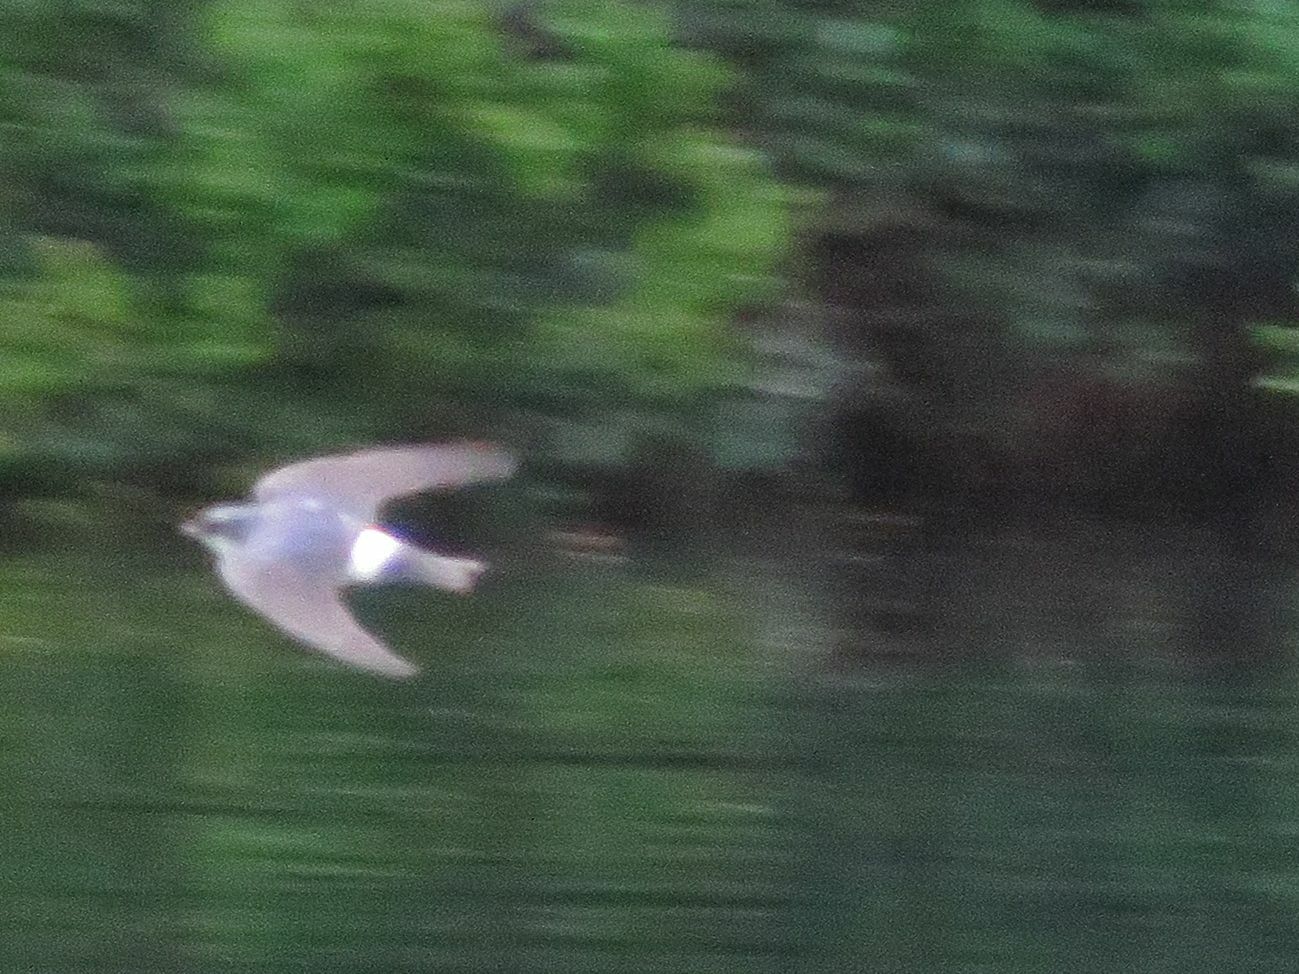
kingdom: Animalia
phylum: Chordata
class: Aves
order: Passeriformes
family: Hirundinidae
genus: Tachycineta
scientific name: Tachycineta leucopyga
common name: Chilean swallow
